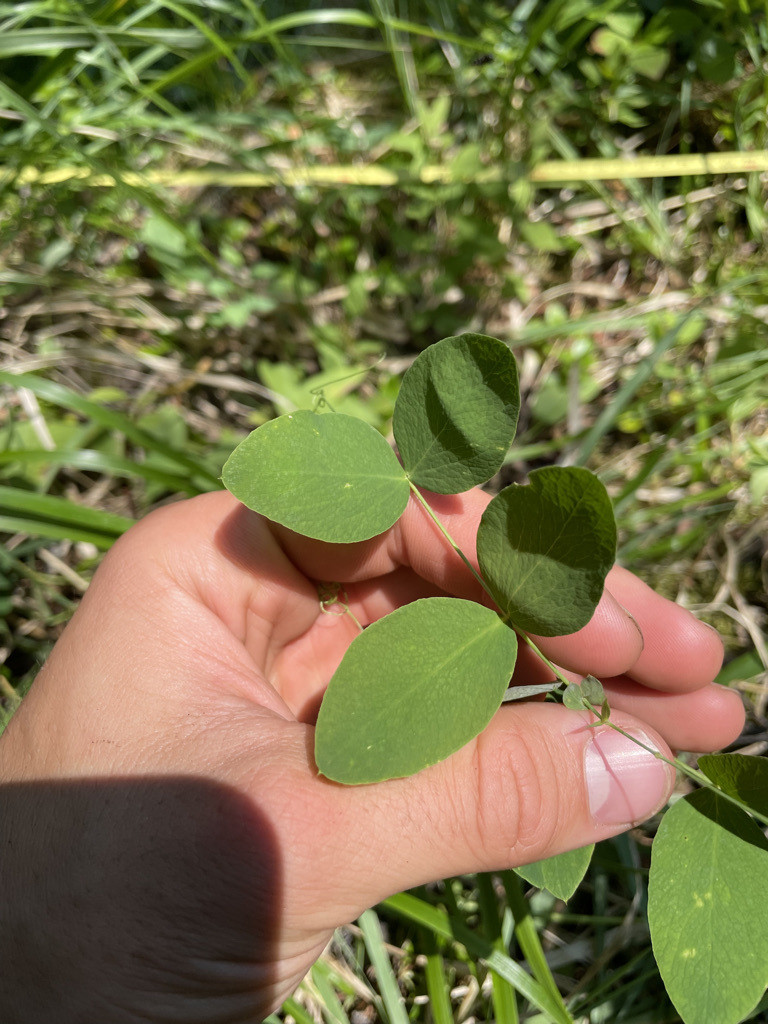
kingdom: Plantae
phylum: Tracheophyta
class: Magnoliopsida
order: Fabales
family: Fabaceae
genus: Lathyrus
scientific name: Lathyrus ochroleucus
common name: Pale vetchling
